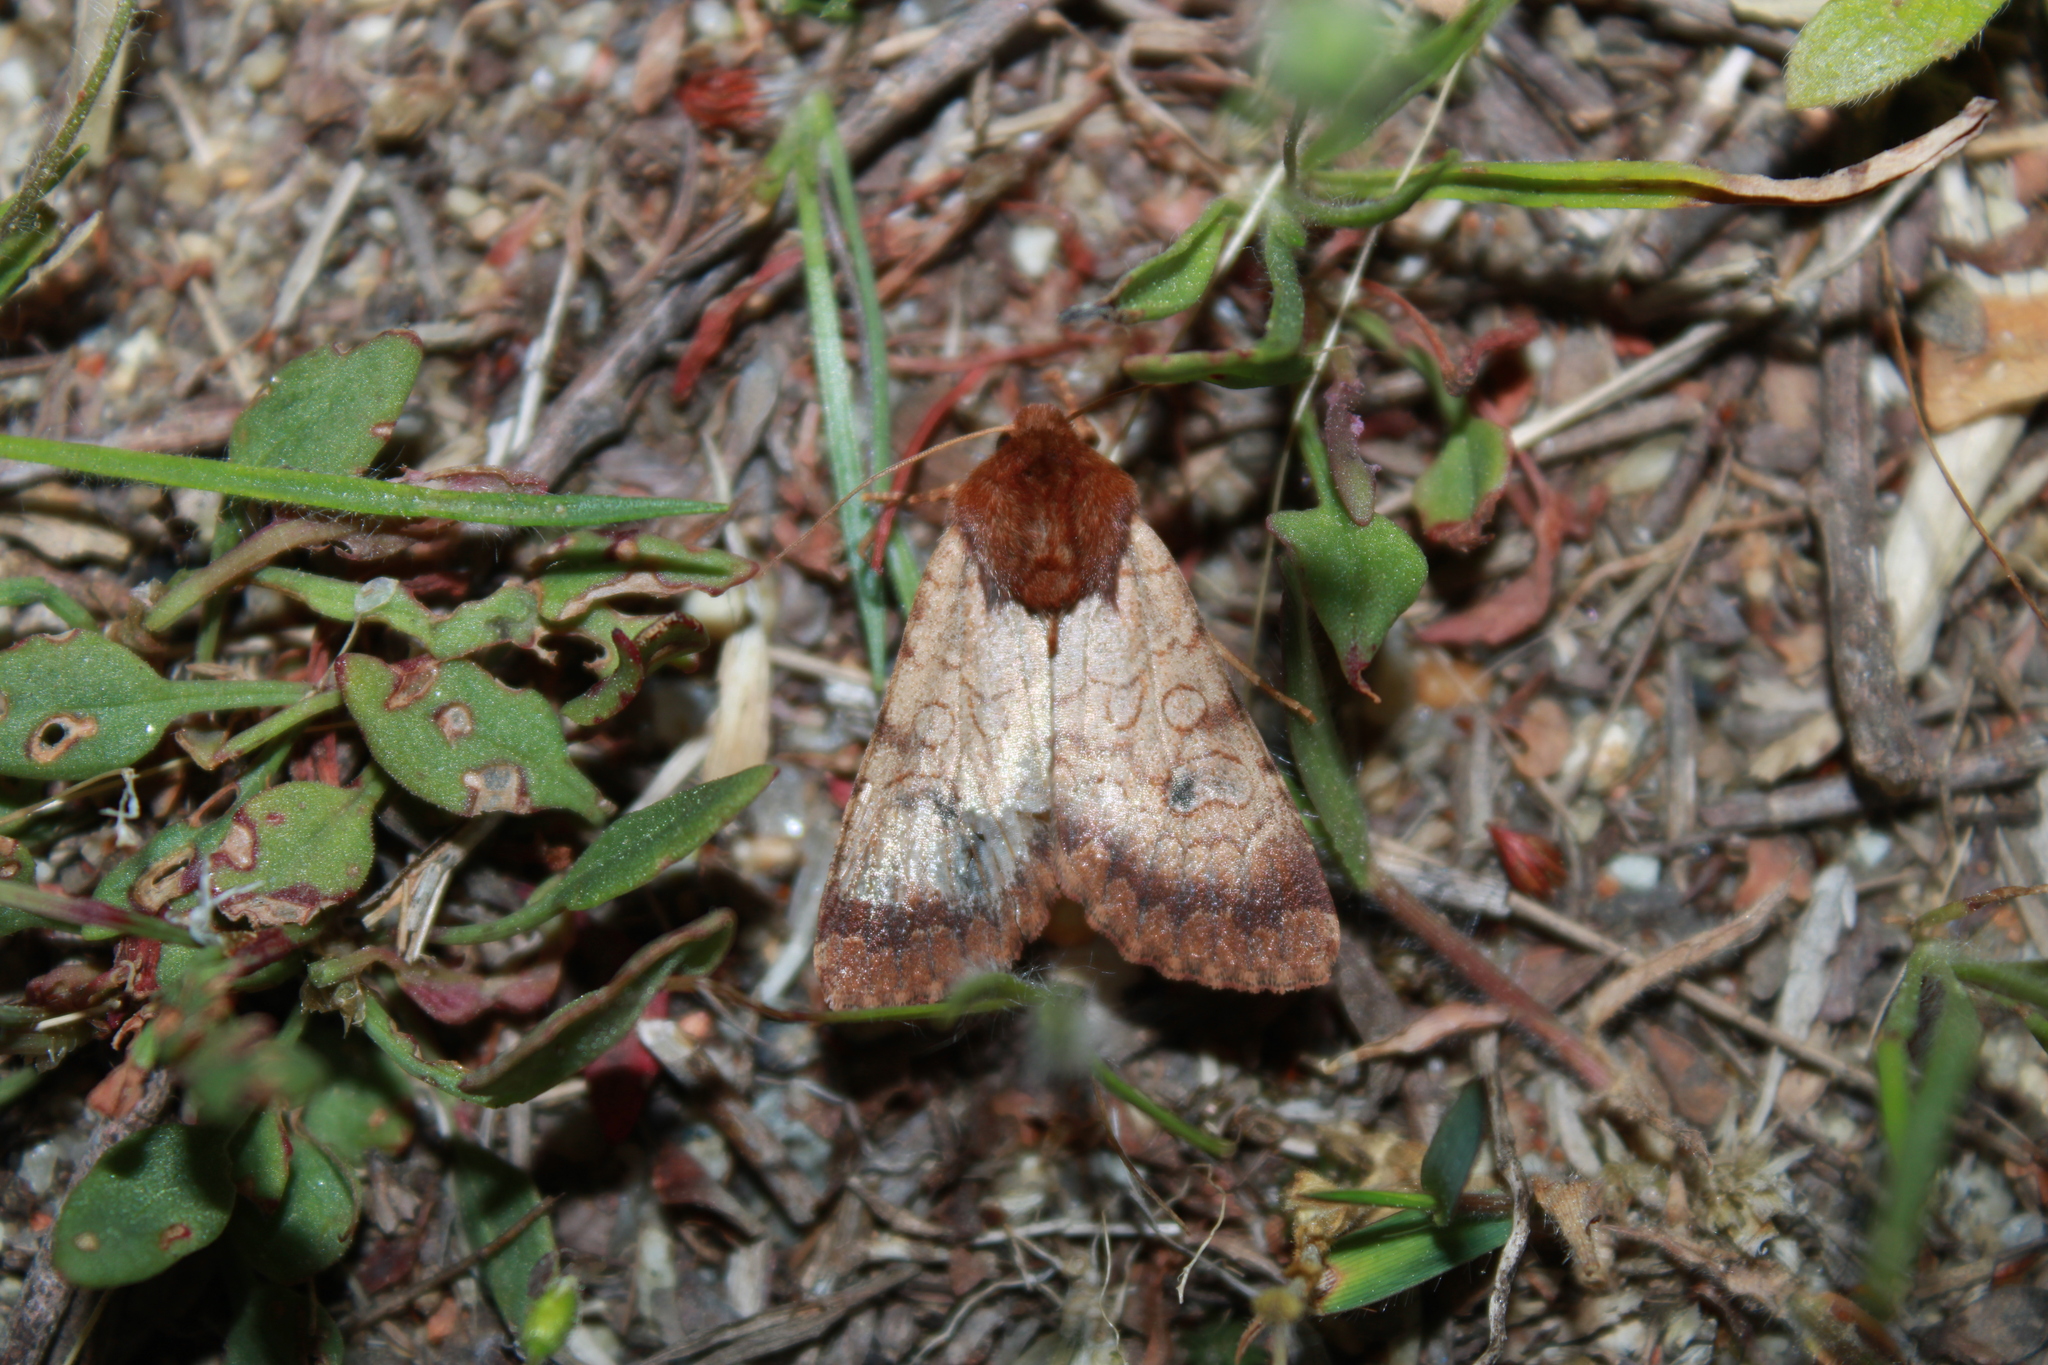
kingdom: Animalia
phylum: Arthropoda
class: Insecta
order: Lepidoptera
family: Noctuidae
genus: Sideridis
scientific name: Sideridis rosea
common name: Rosewing moth
